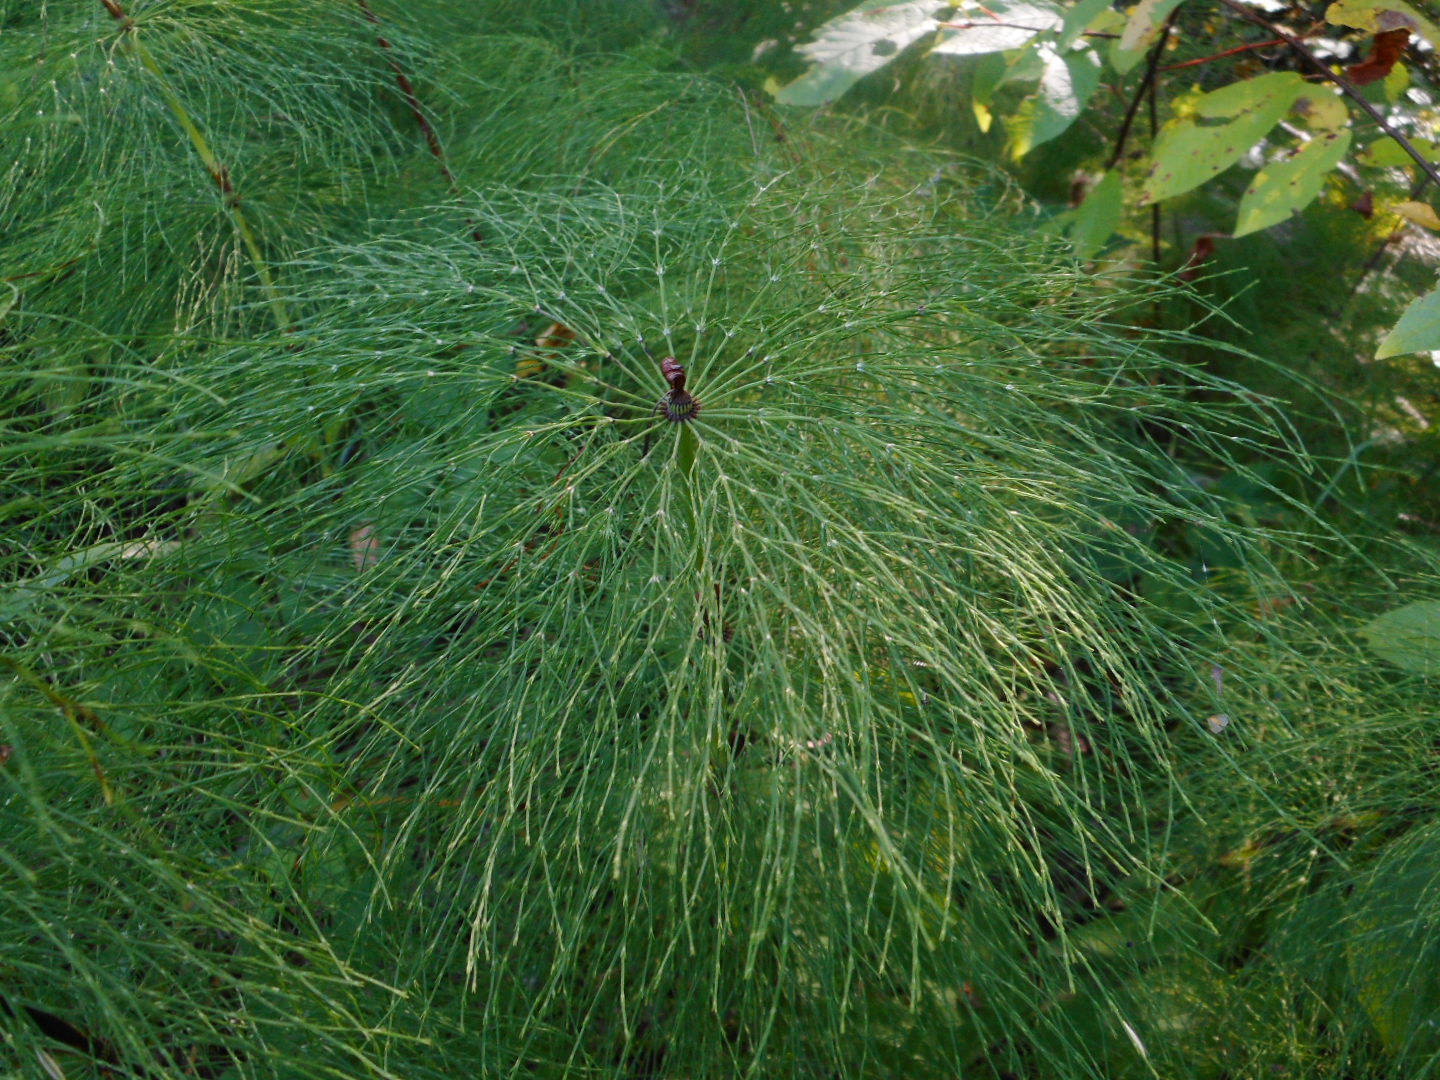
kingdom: Plantae
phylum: Tracheophyta
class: Polypodiopsida
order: Equisetales
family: Equisetaceae
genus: Equisetum
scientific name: Equisetum sylvaticum
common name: Wood horsetail
